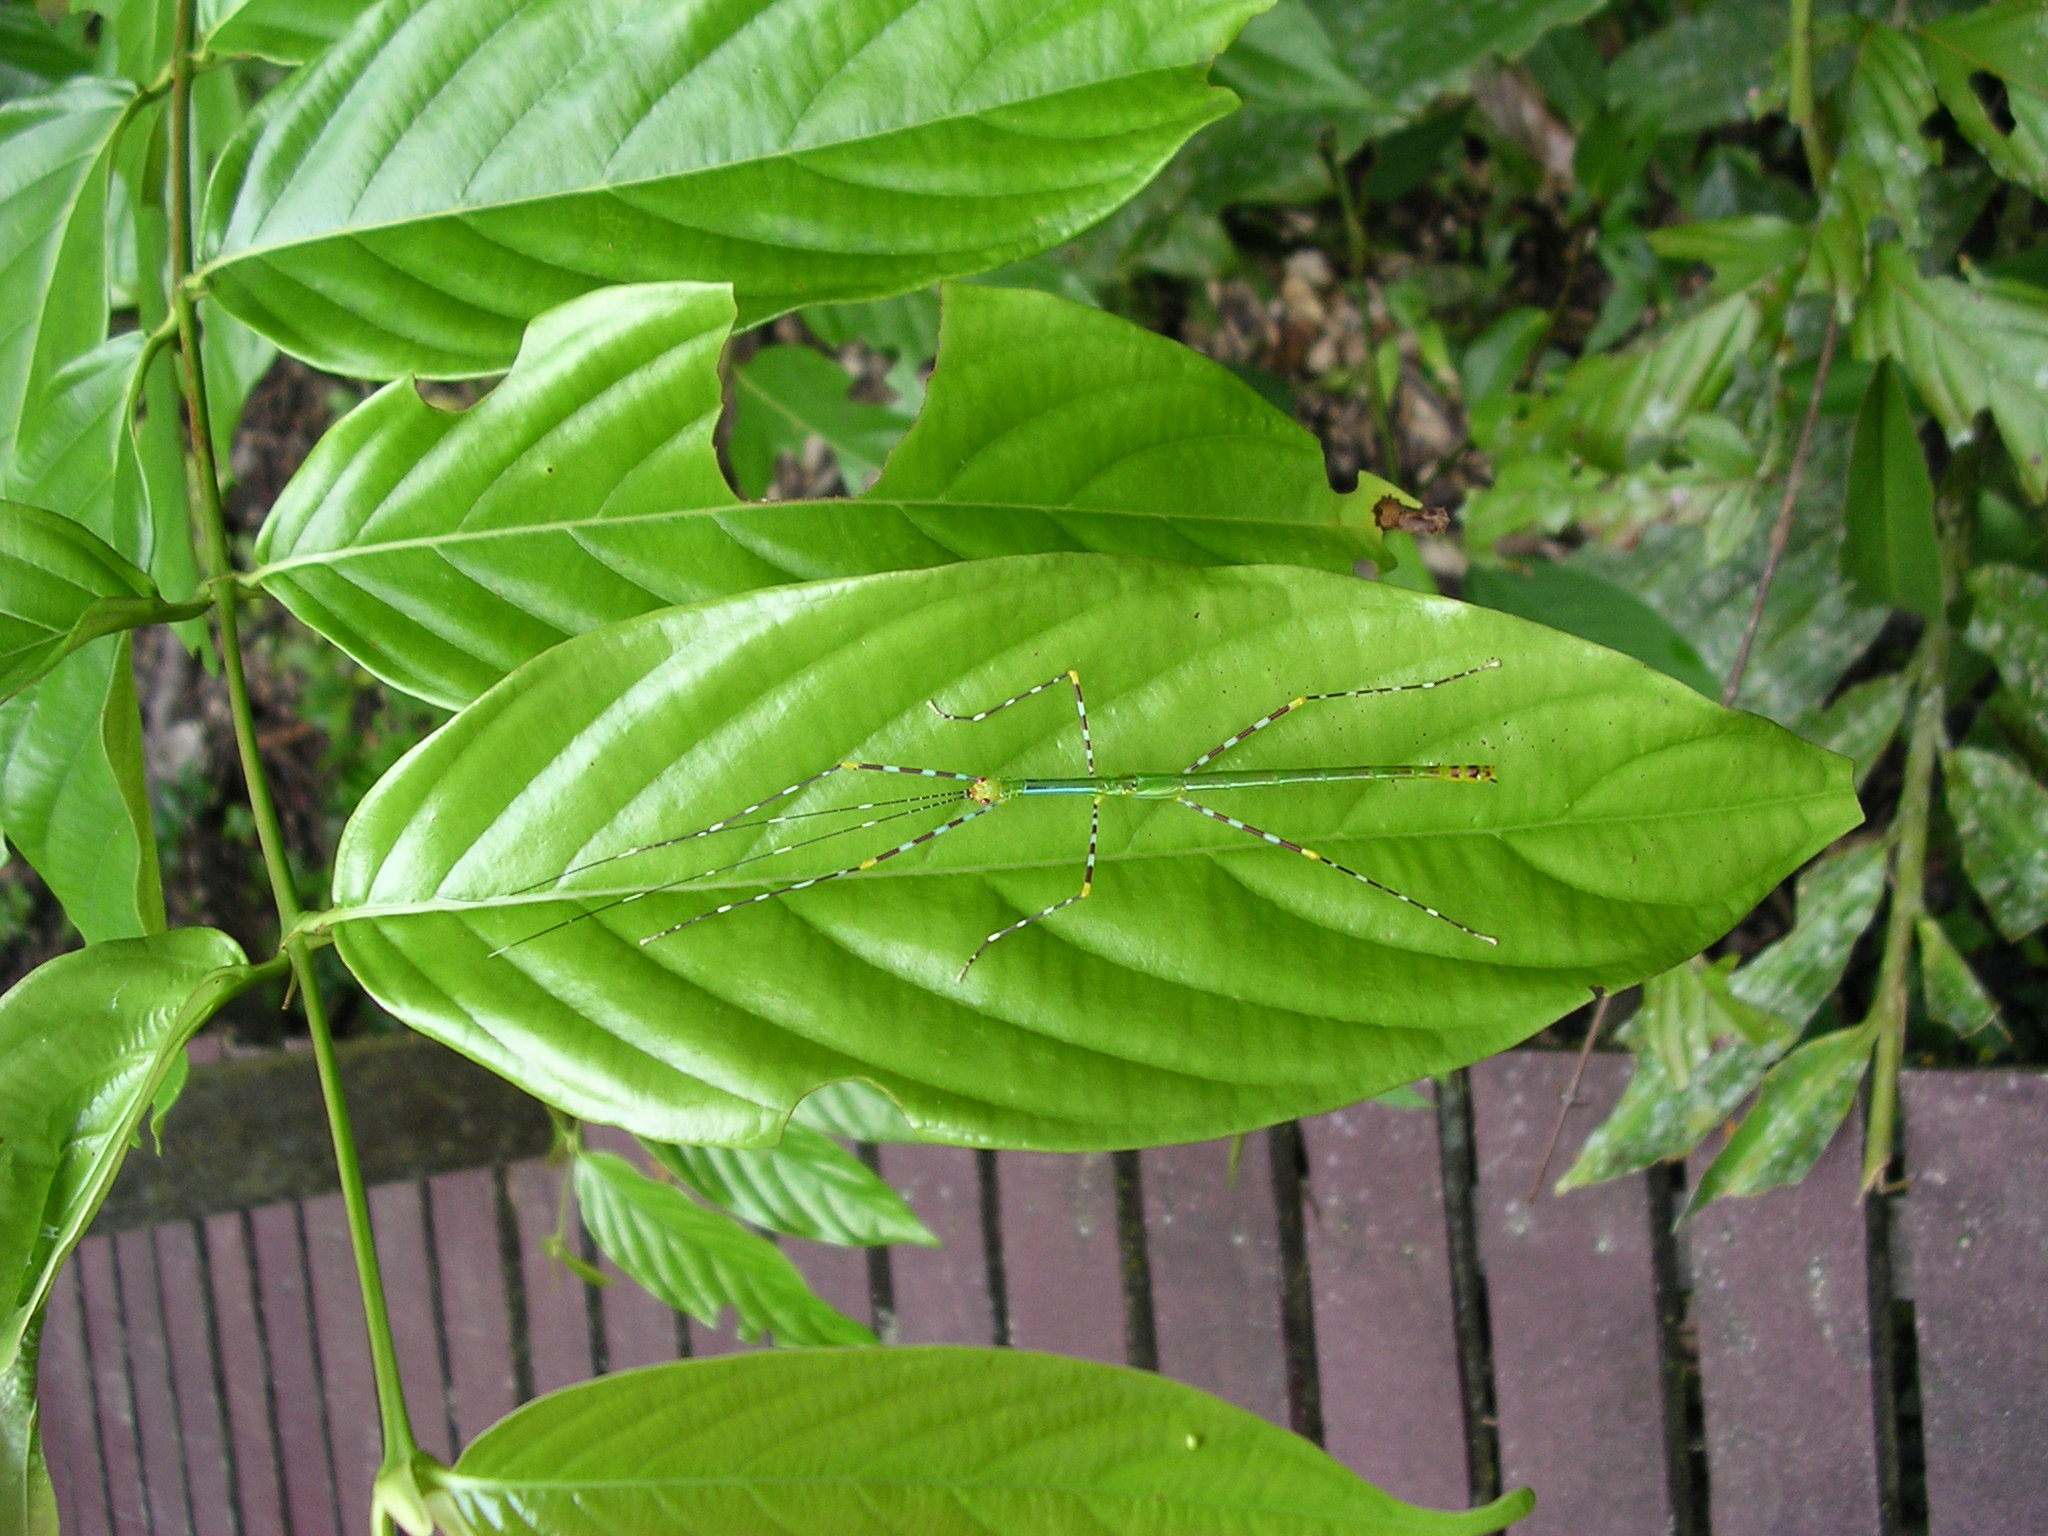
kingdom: Animalia
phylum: Arthropoda
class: Insecta
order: Phasmida
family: Lonchodidae
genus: Orthonecroscia
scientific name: Orthonecroscia fuscoannulata
